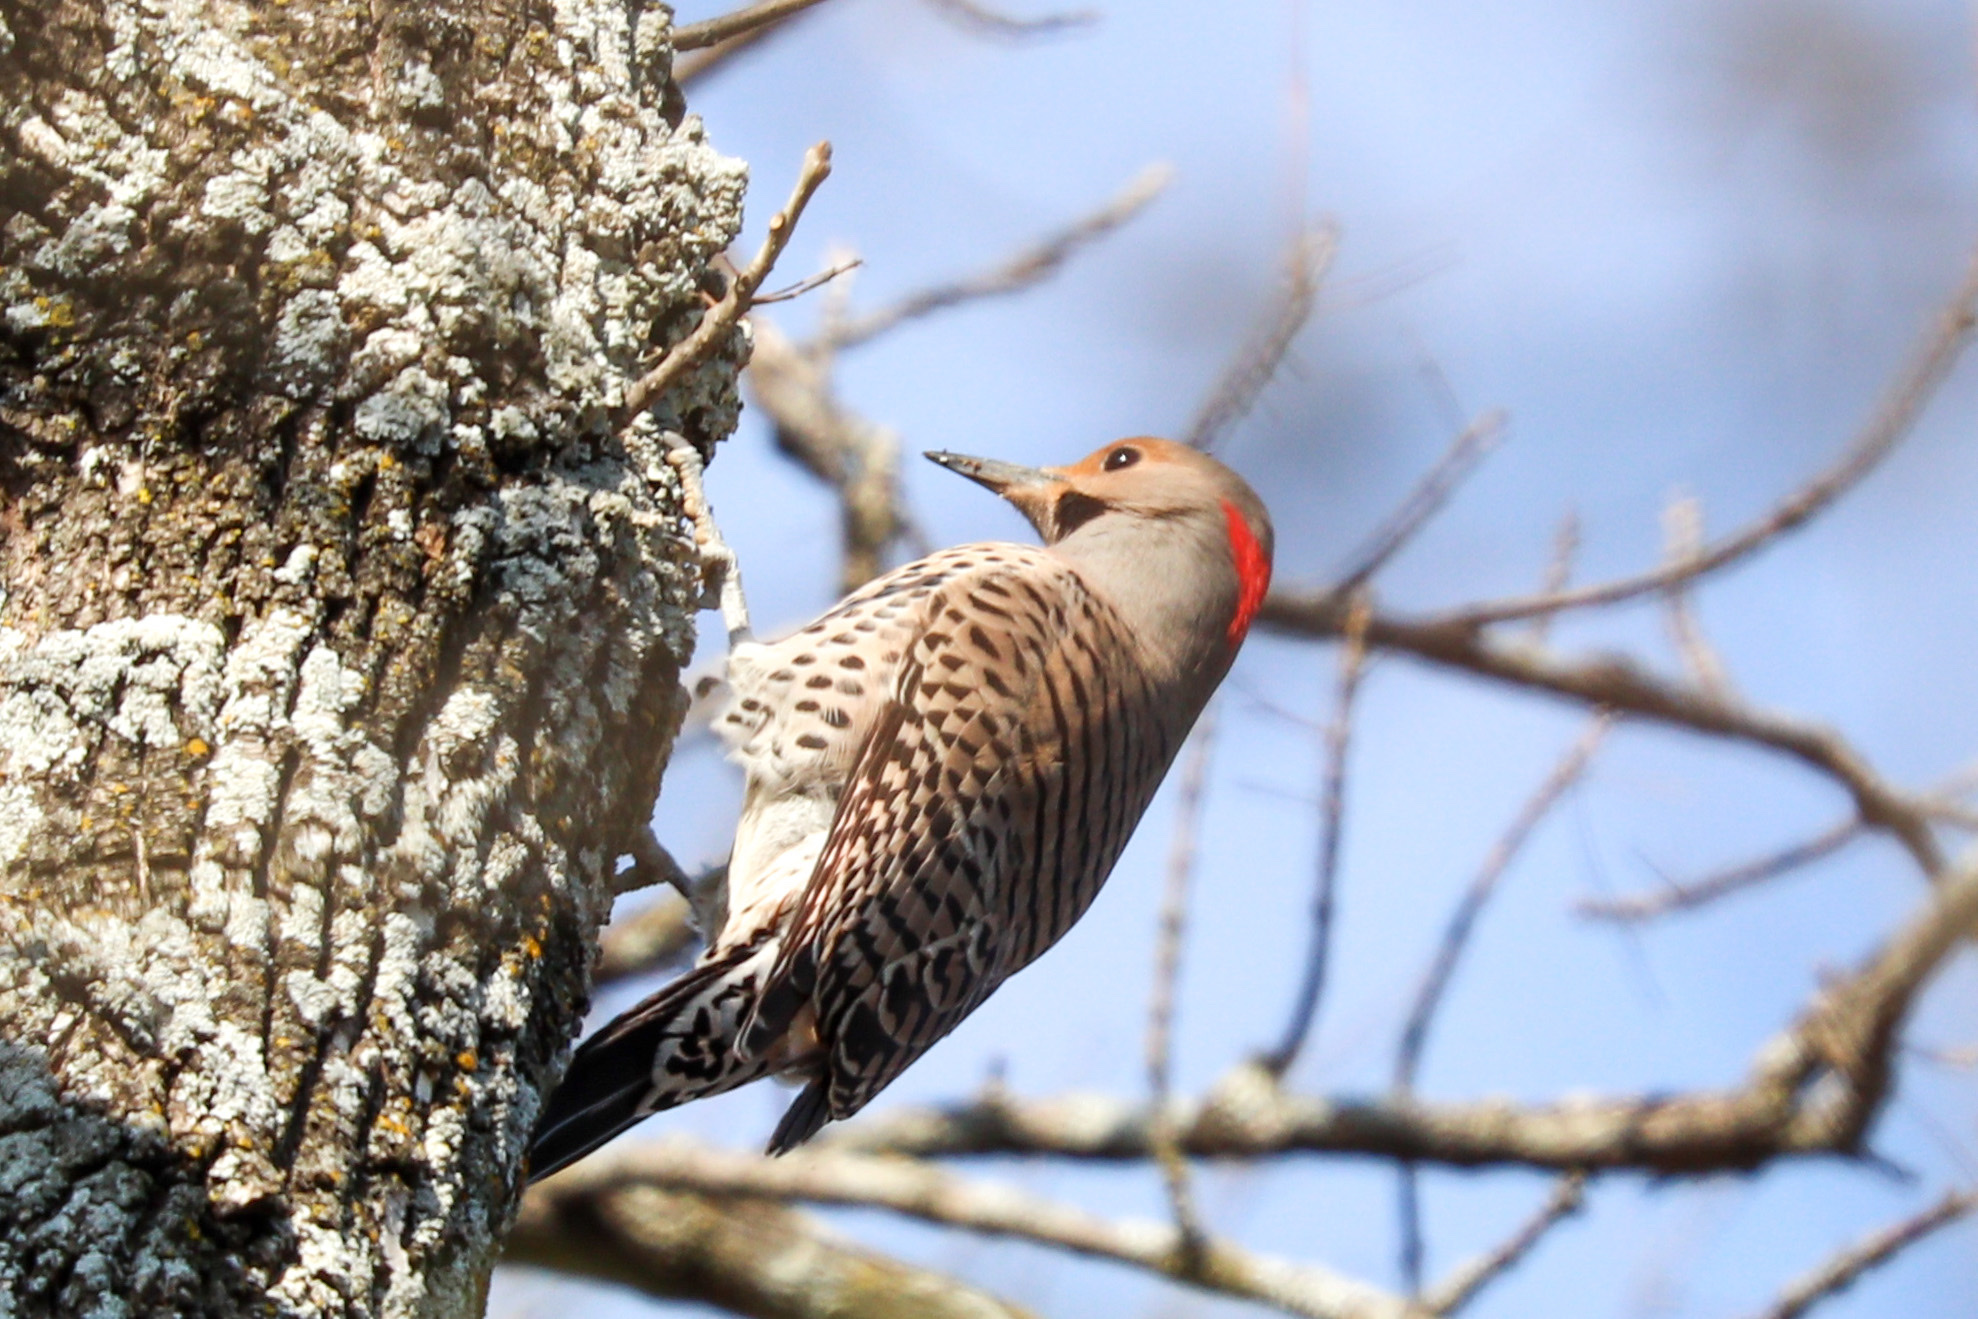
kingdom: Animalia
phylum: Chordata
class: Aves
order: Piciformes
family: Picidae
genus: Colaptes
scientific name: Colaptes auratus
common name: Northern flicker
